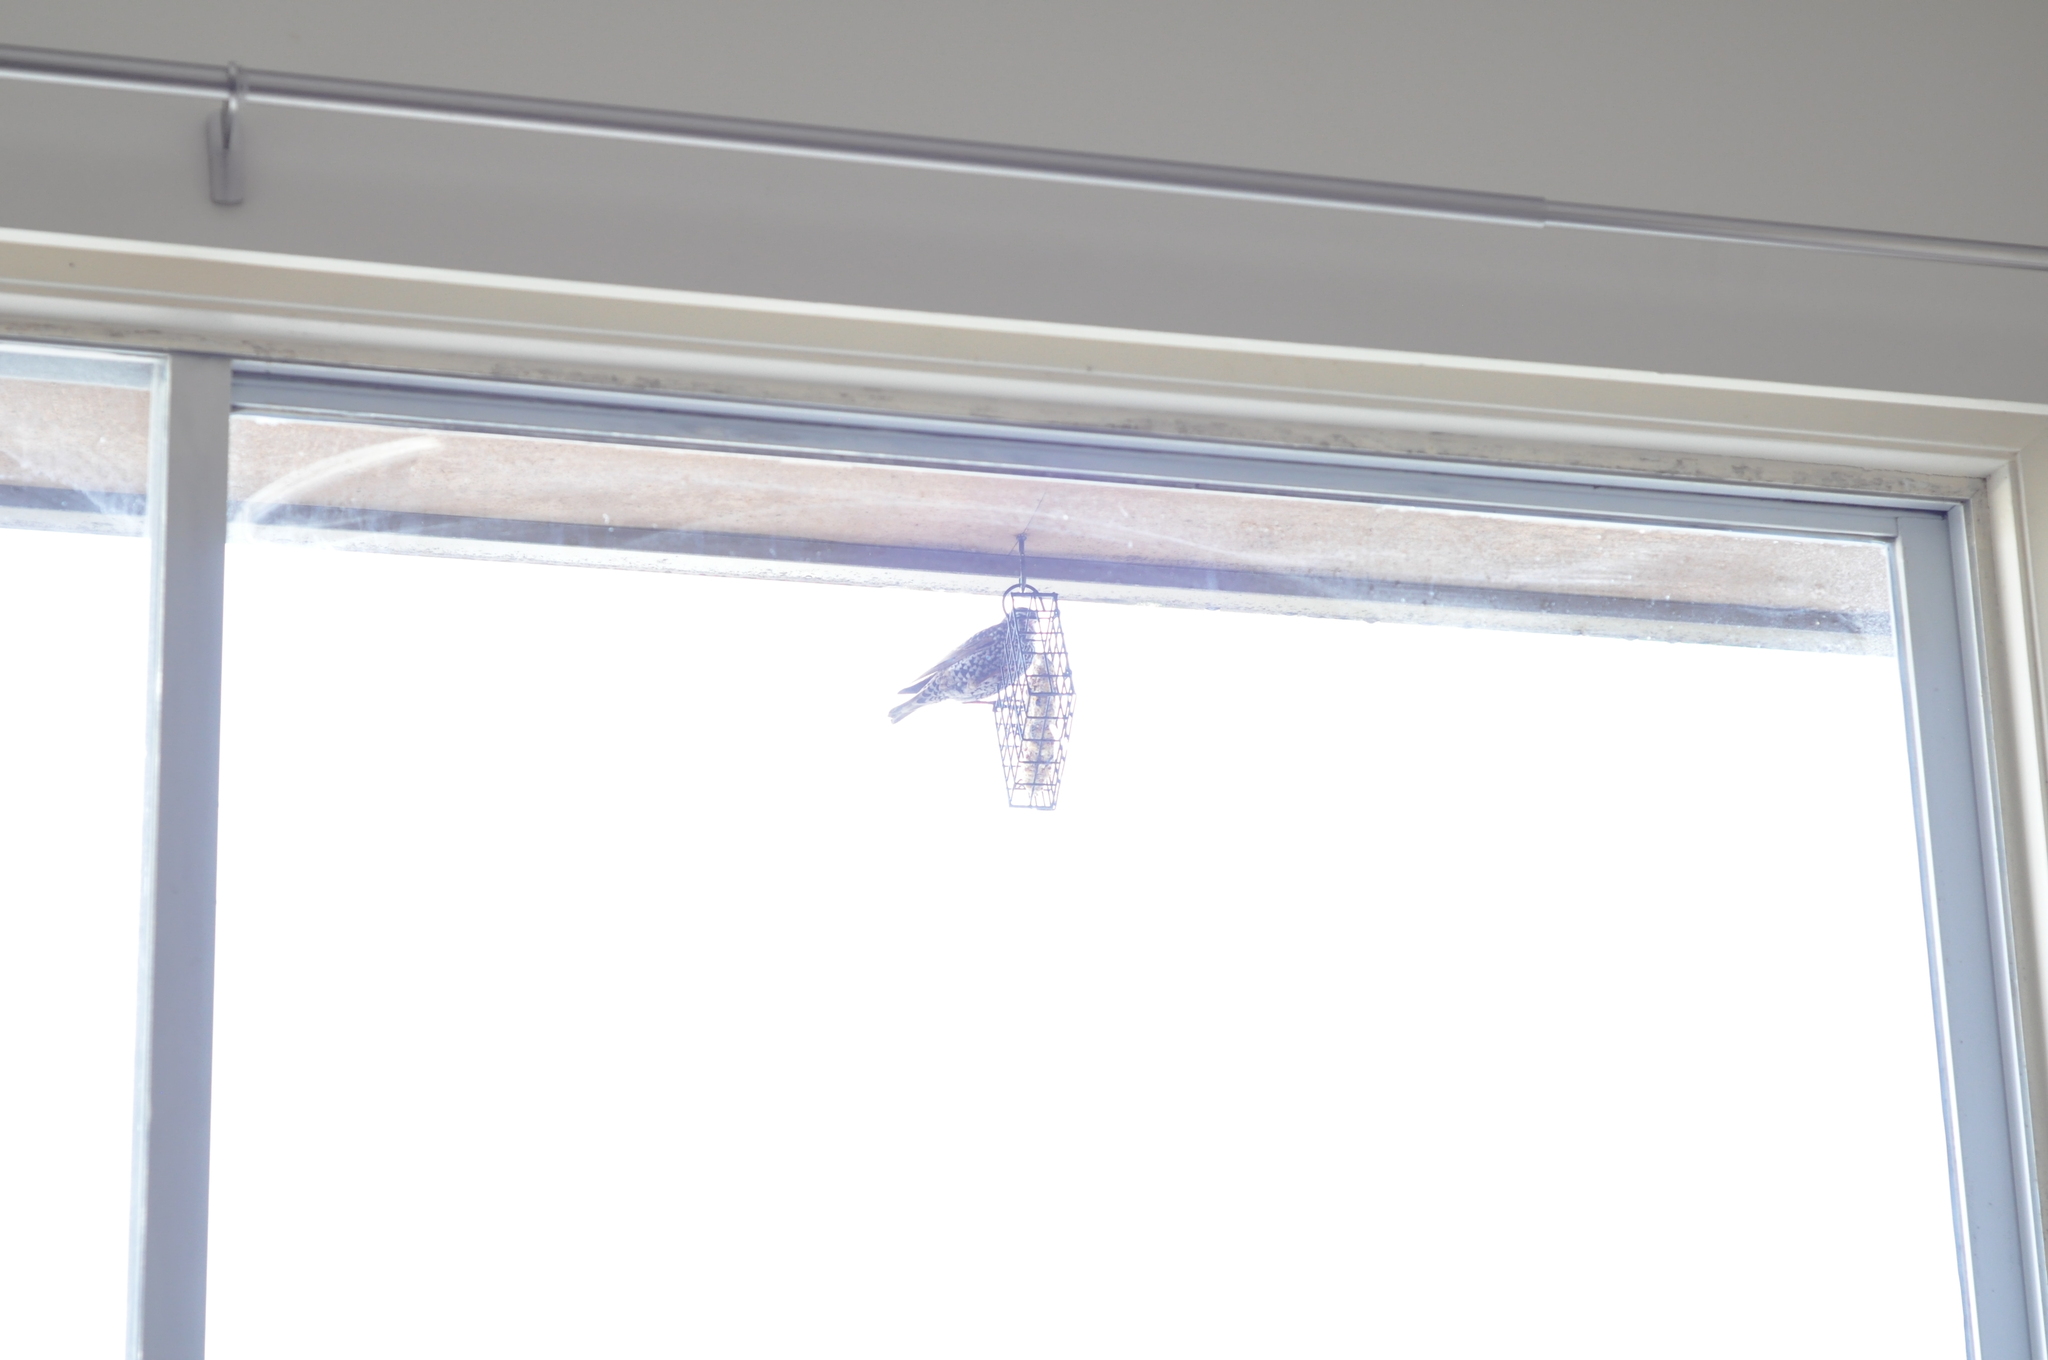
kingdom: Animalia
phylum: Chordata
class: Aves
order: Passeriformes
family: Sturnidae
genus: Sturnus
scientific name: Sturnus vulgaris
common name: Common starling
